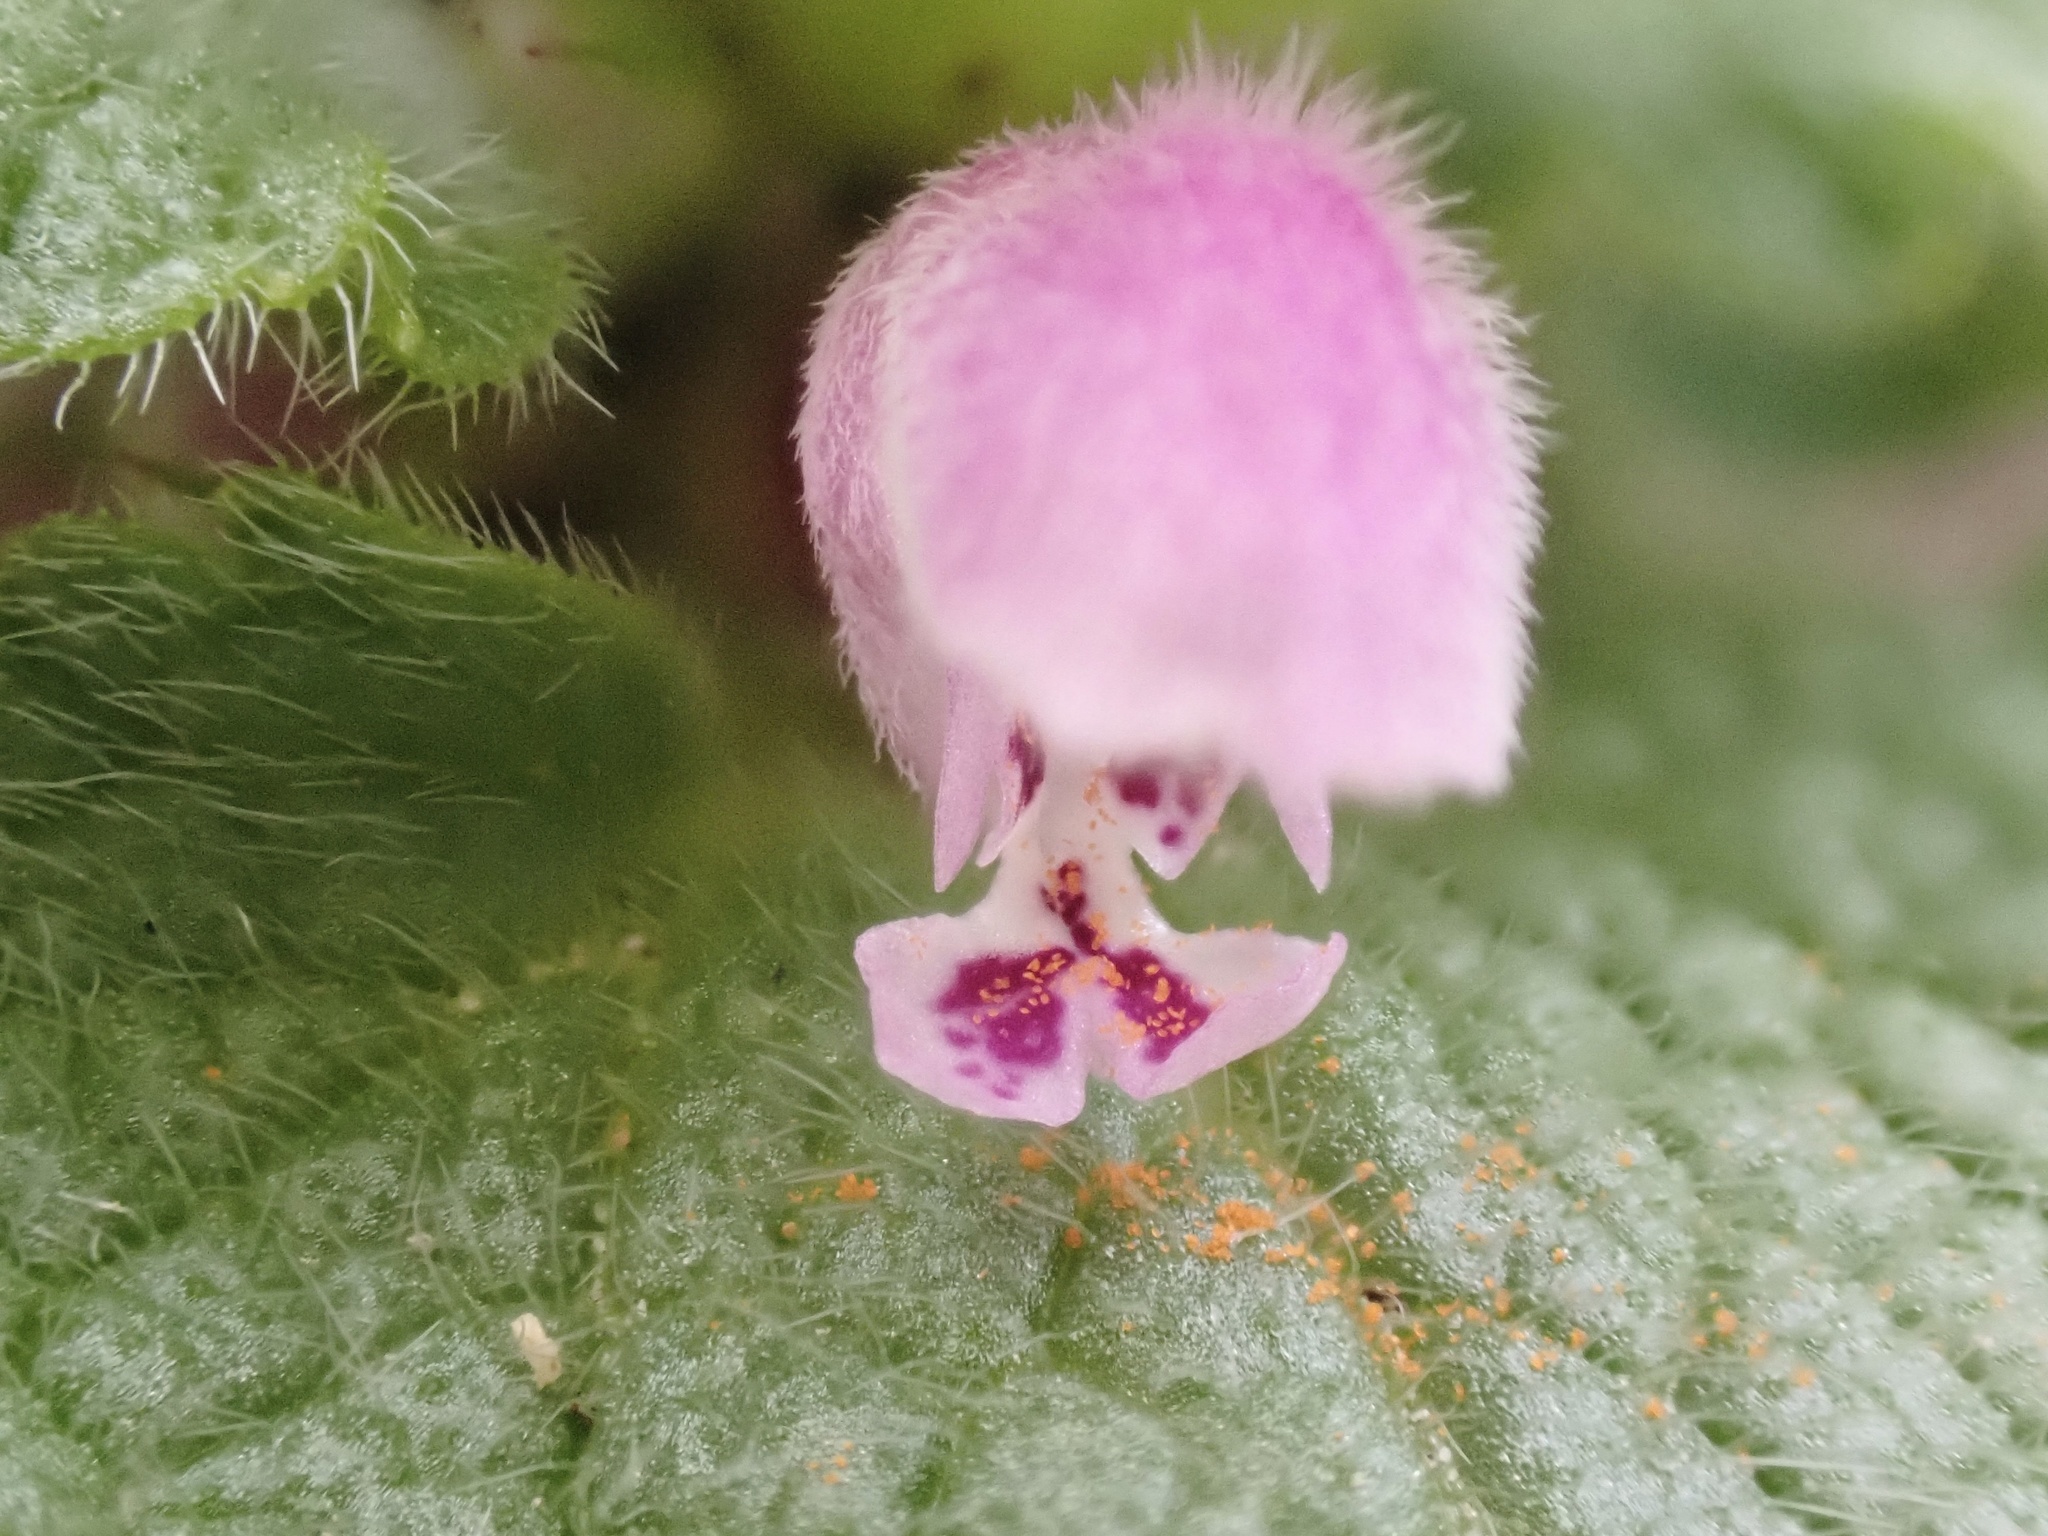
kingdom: Plantae
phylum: Tracheophyta
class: Magnoliopsida
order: Lamiales
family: Lamiaceae
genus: Lamium
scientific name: Lamium purpureum
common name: Red dead-nettle
